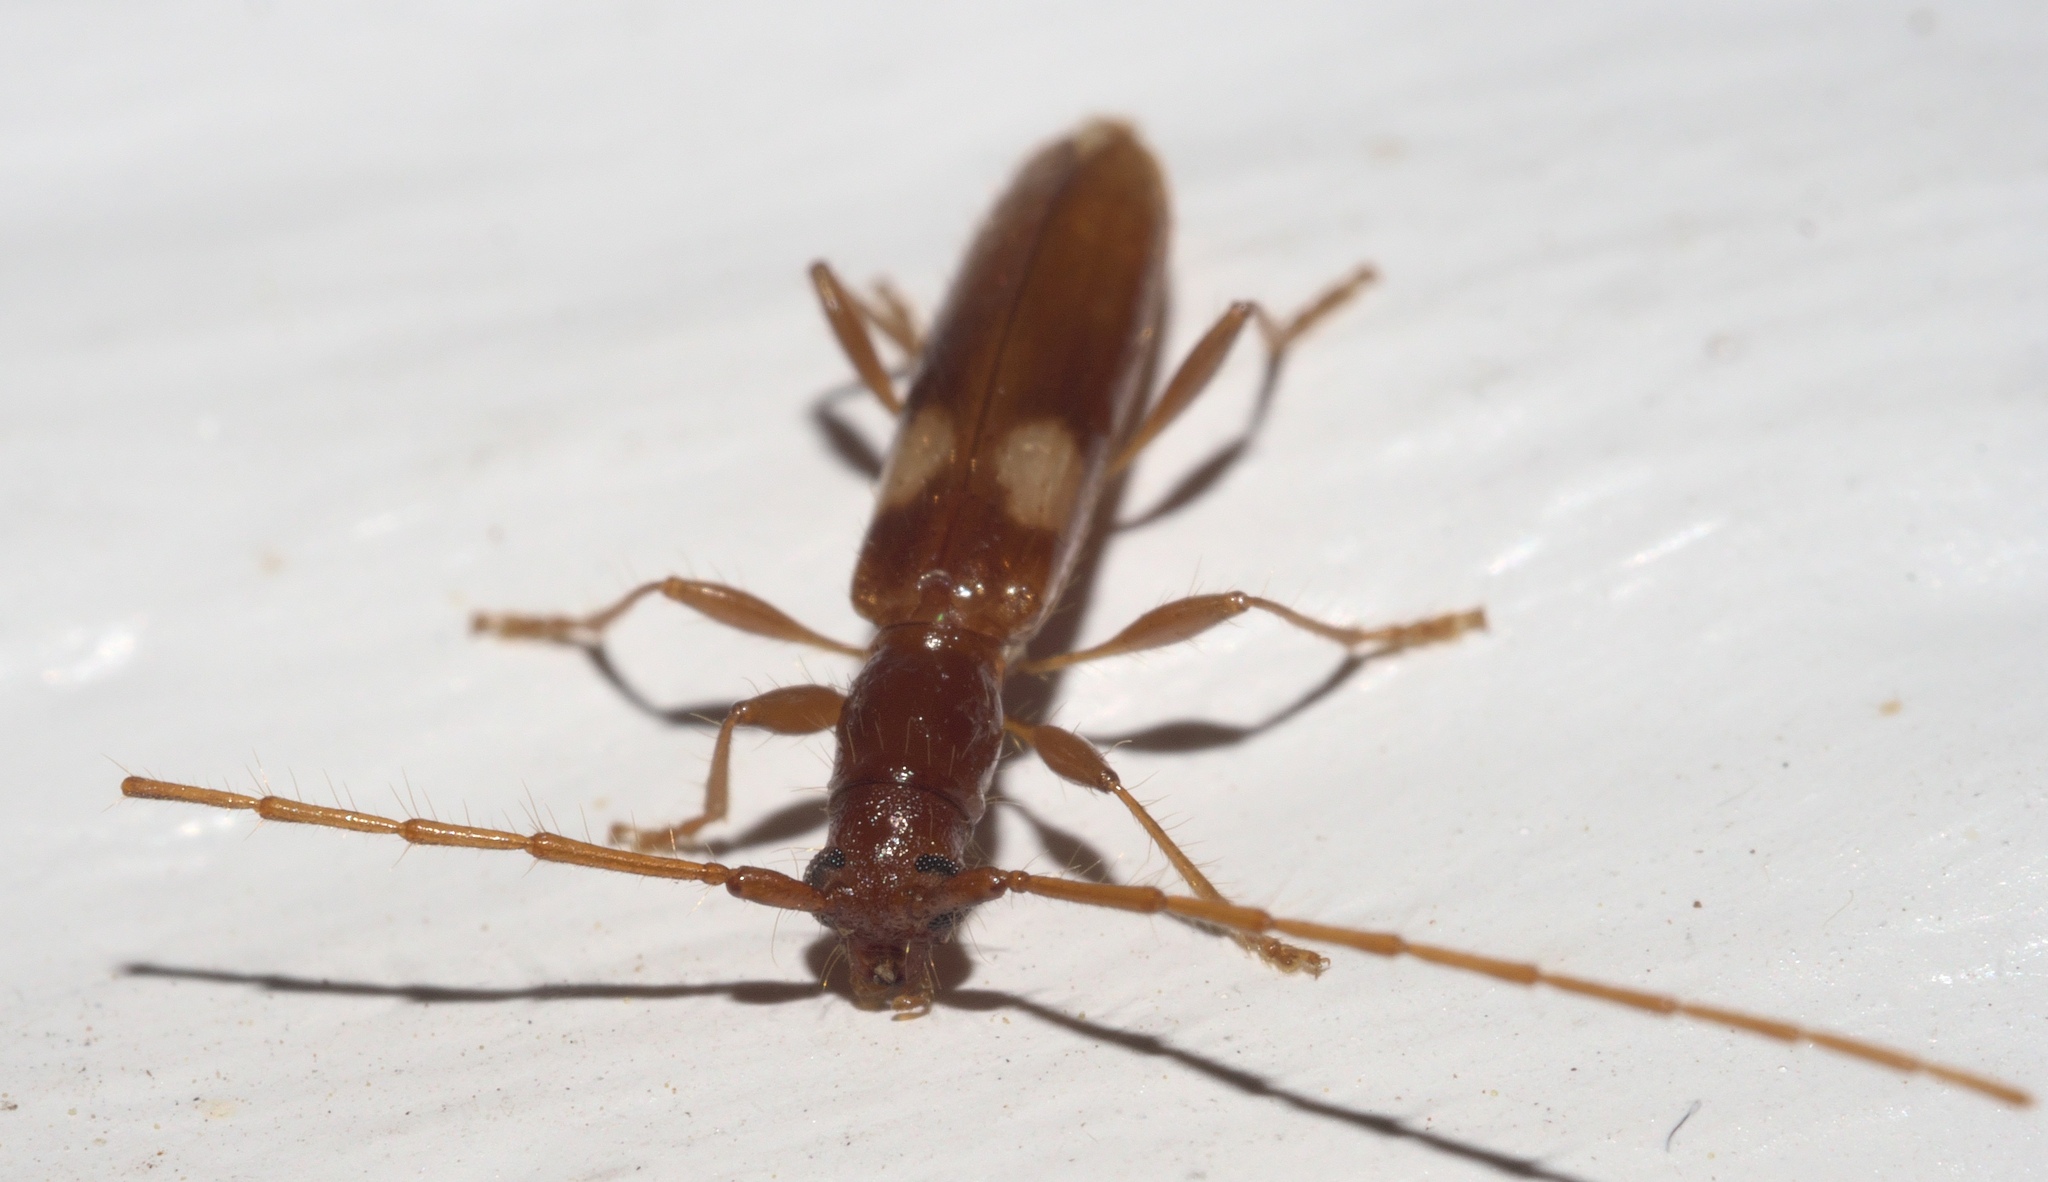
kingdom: Animalia
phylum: Arthropoda
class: Insecta
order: Coleoptera
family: Cerambycidae
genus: Heterachthes
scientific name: Heterachthes quadrimaculatus
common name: Four-spotted hickory borer
